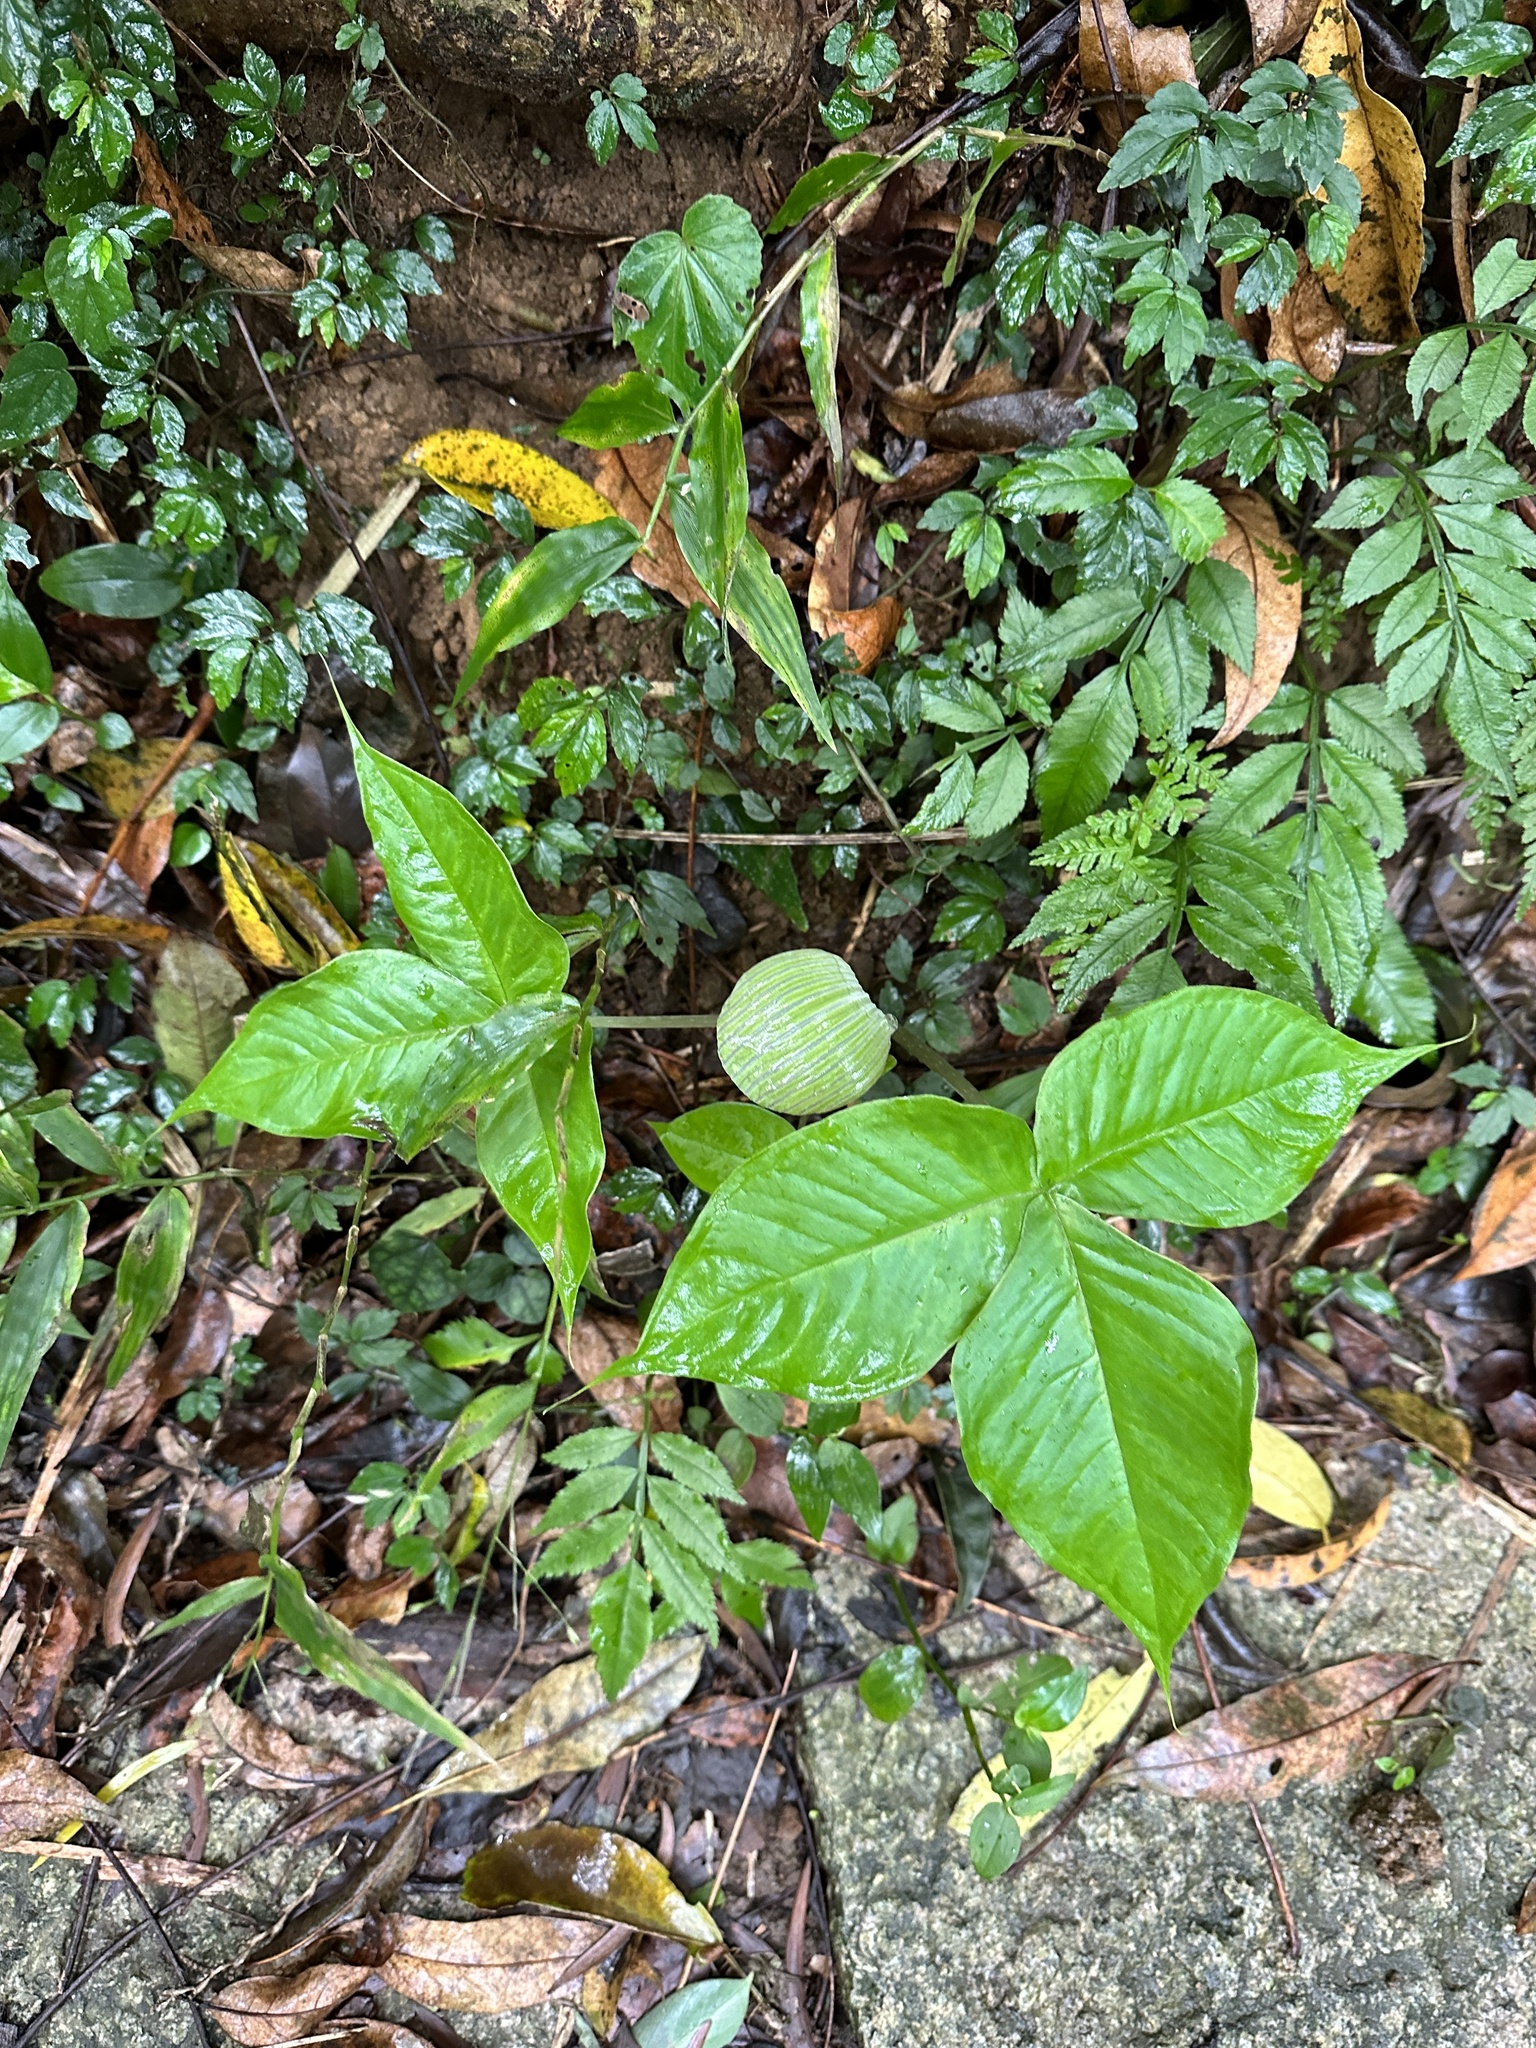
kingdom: Plantae
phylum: Tracheophyta
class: Liliopsida
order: Alismatales
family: Araceae
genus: Arisaema
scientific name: Arisaema ringens
